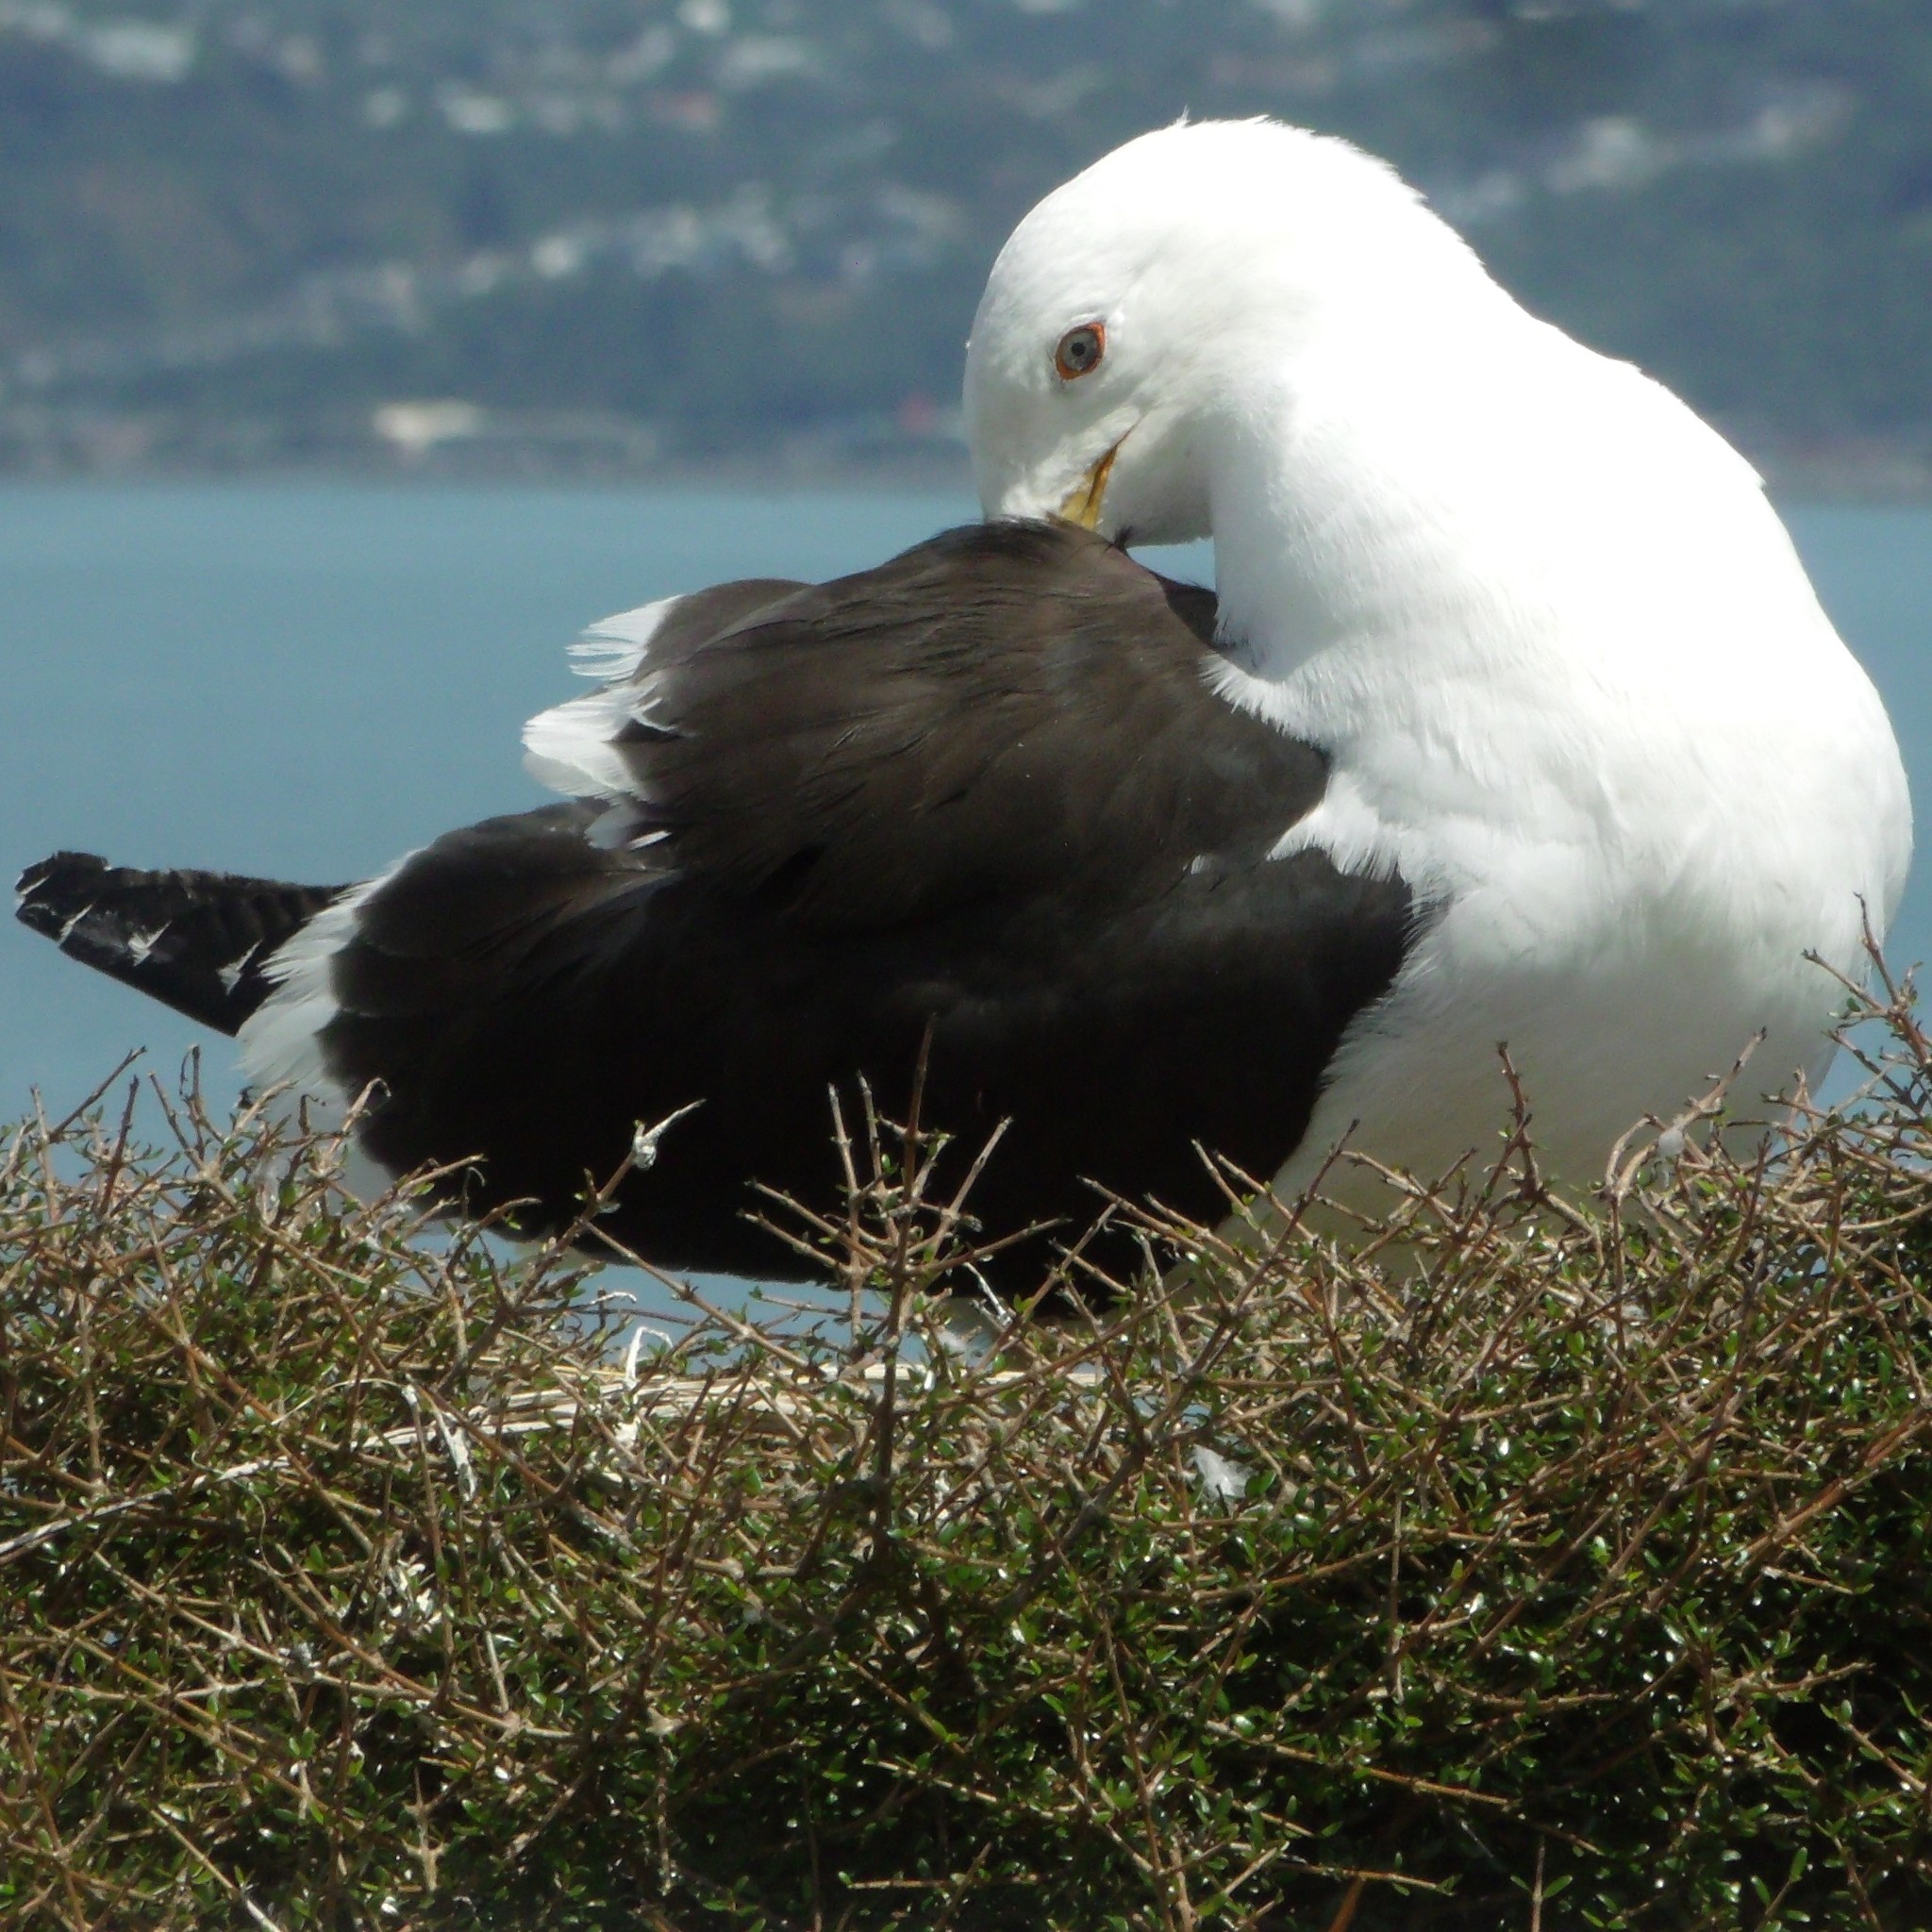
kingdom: Animalia
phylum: Chordata
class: Aves
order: Charadriiformes
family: Laridae
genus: Larus
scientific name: Larus dominicanus
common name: Kelp gull
